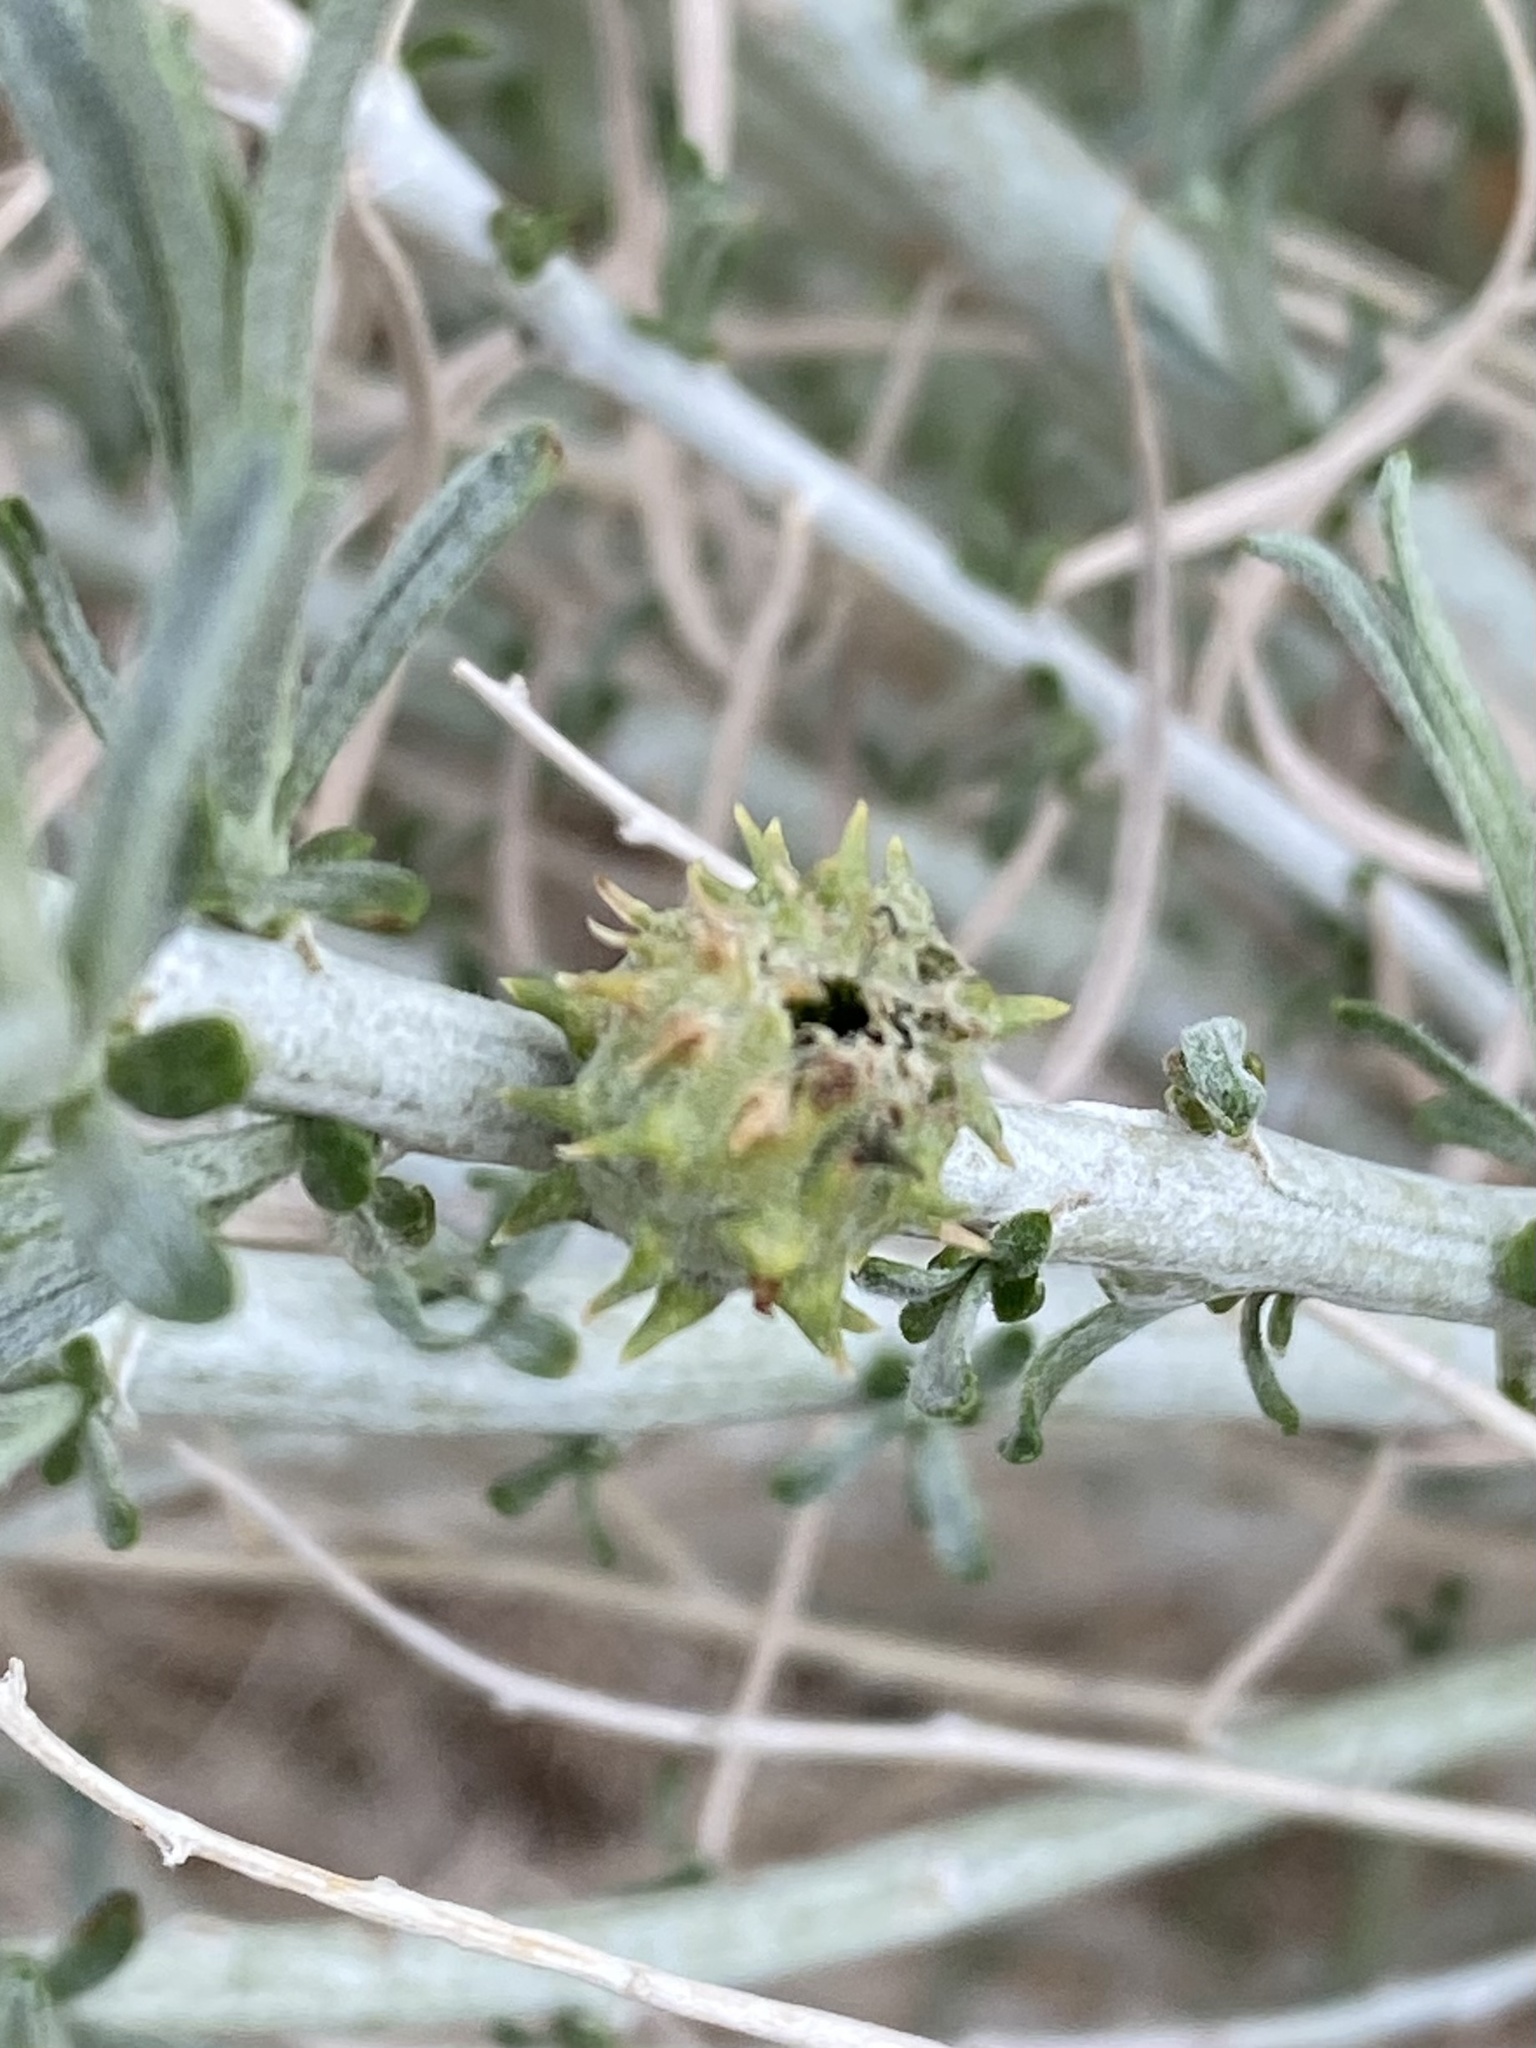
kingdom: Animalia
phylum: Arthropoda
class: Insecta
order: Diptera
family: Cecidomyiidae
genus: Rhopalomyia
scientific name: Rhopalomyia utahensis
